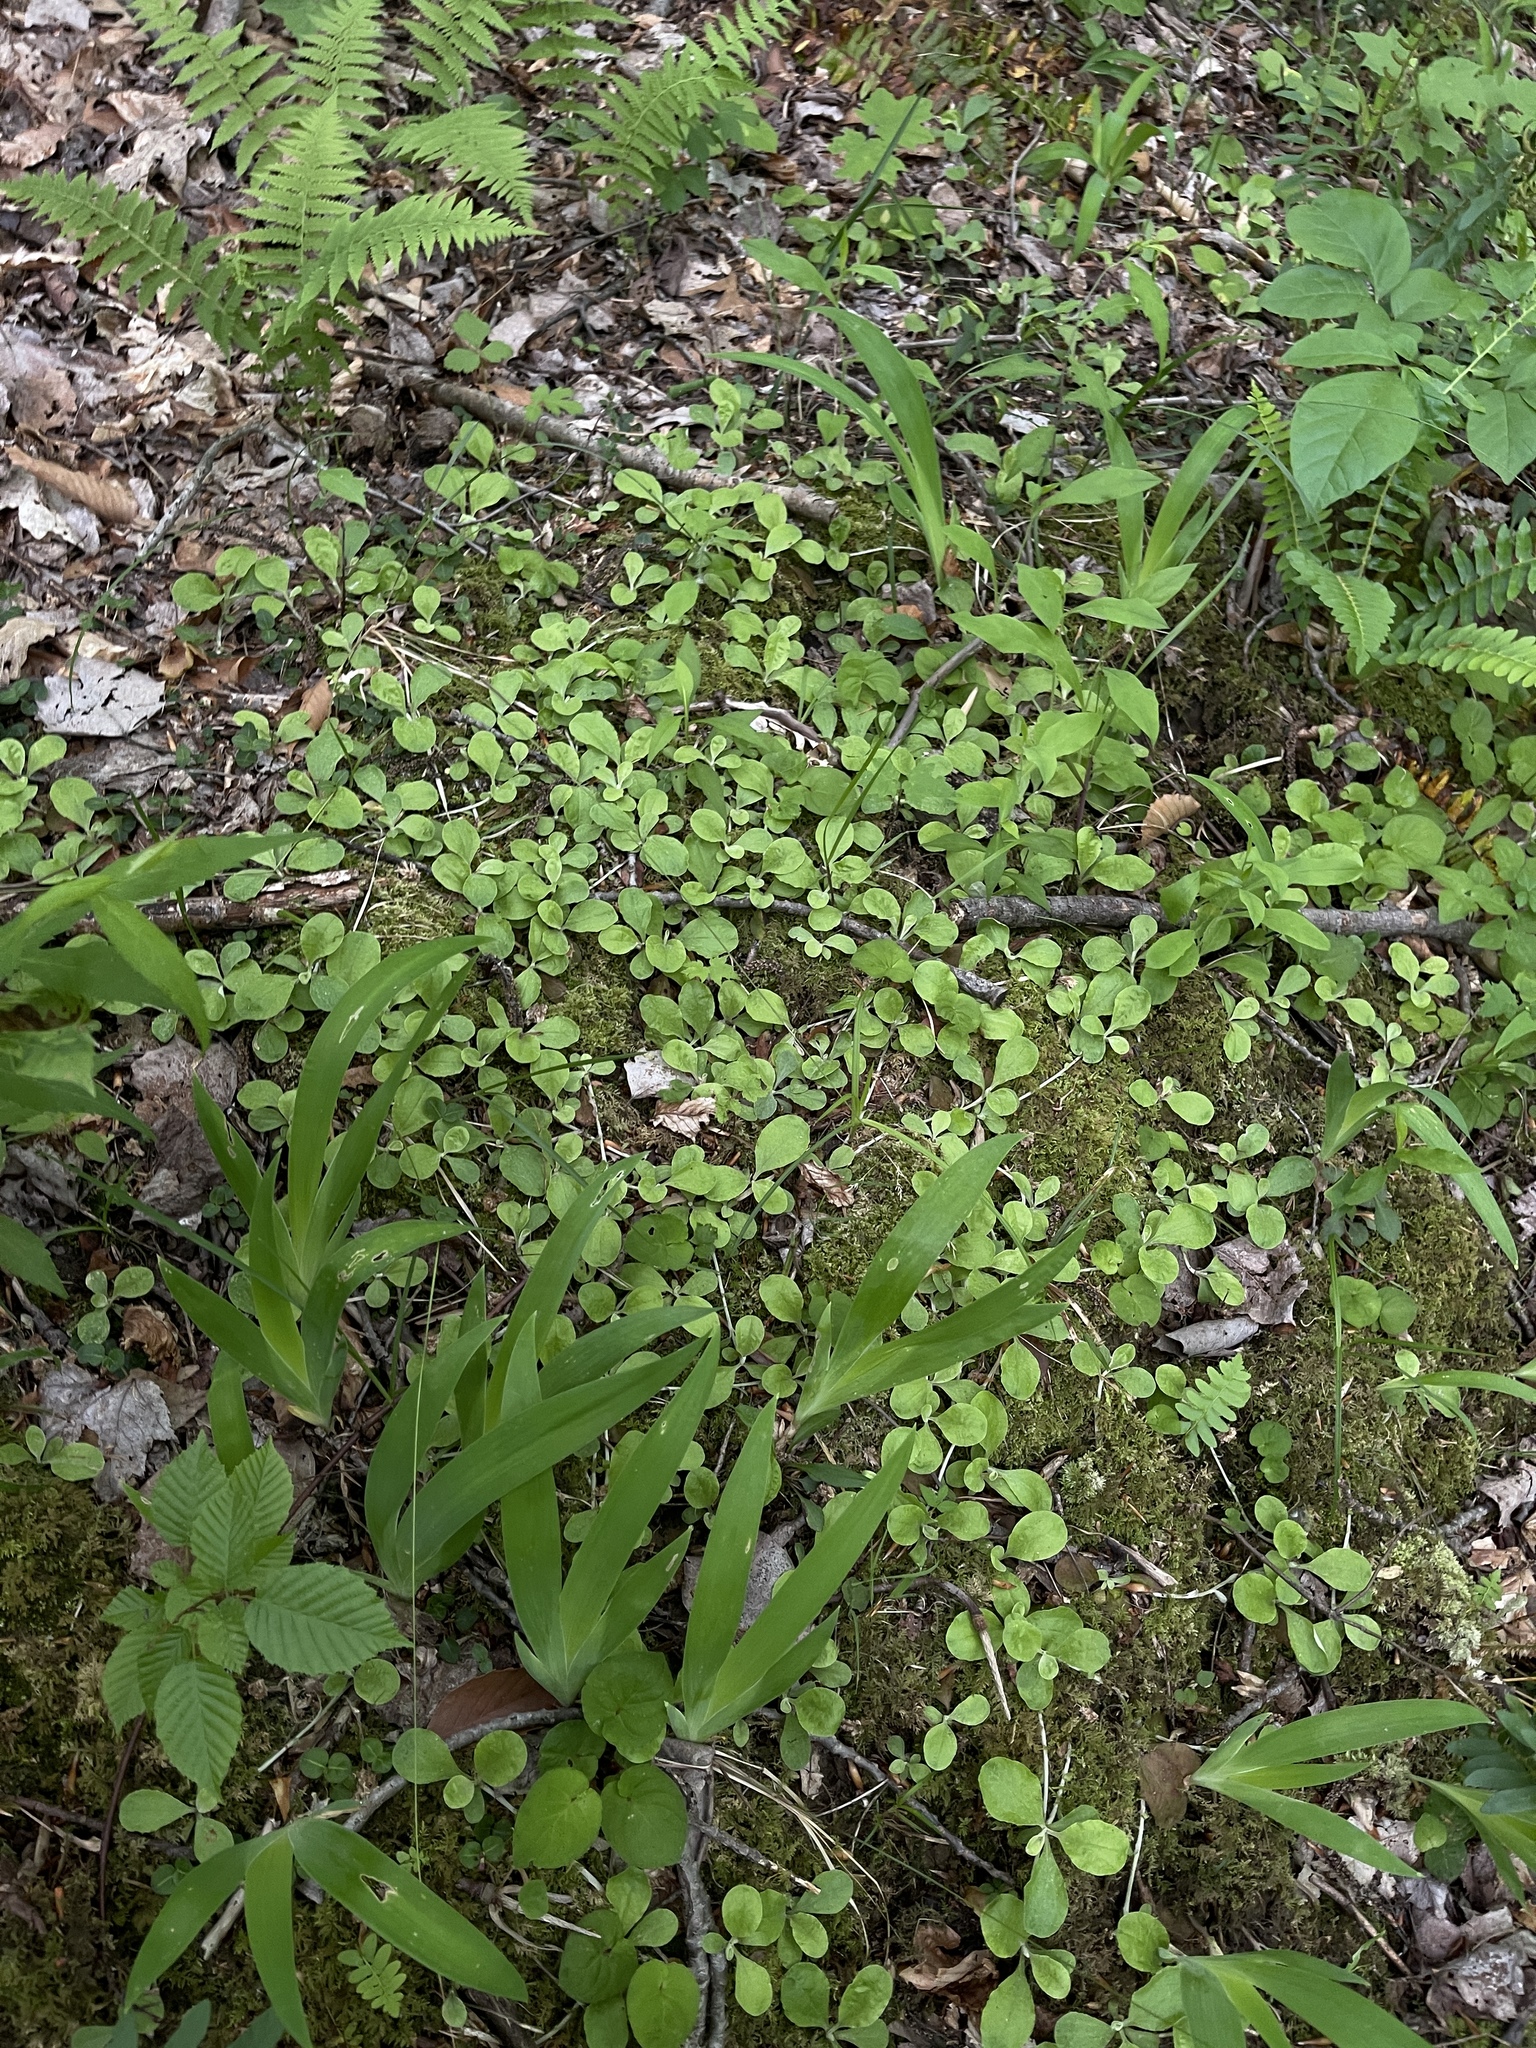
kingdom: Plantae
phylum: Tracheophyta
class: Liliopsida
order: Asparagales
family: Iridaceae
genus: Iris
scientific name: Iris cristata
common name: Crested iris
